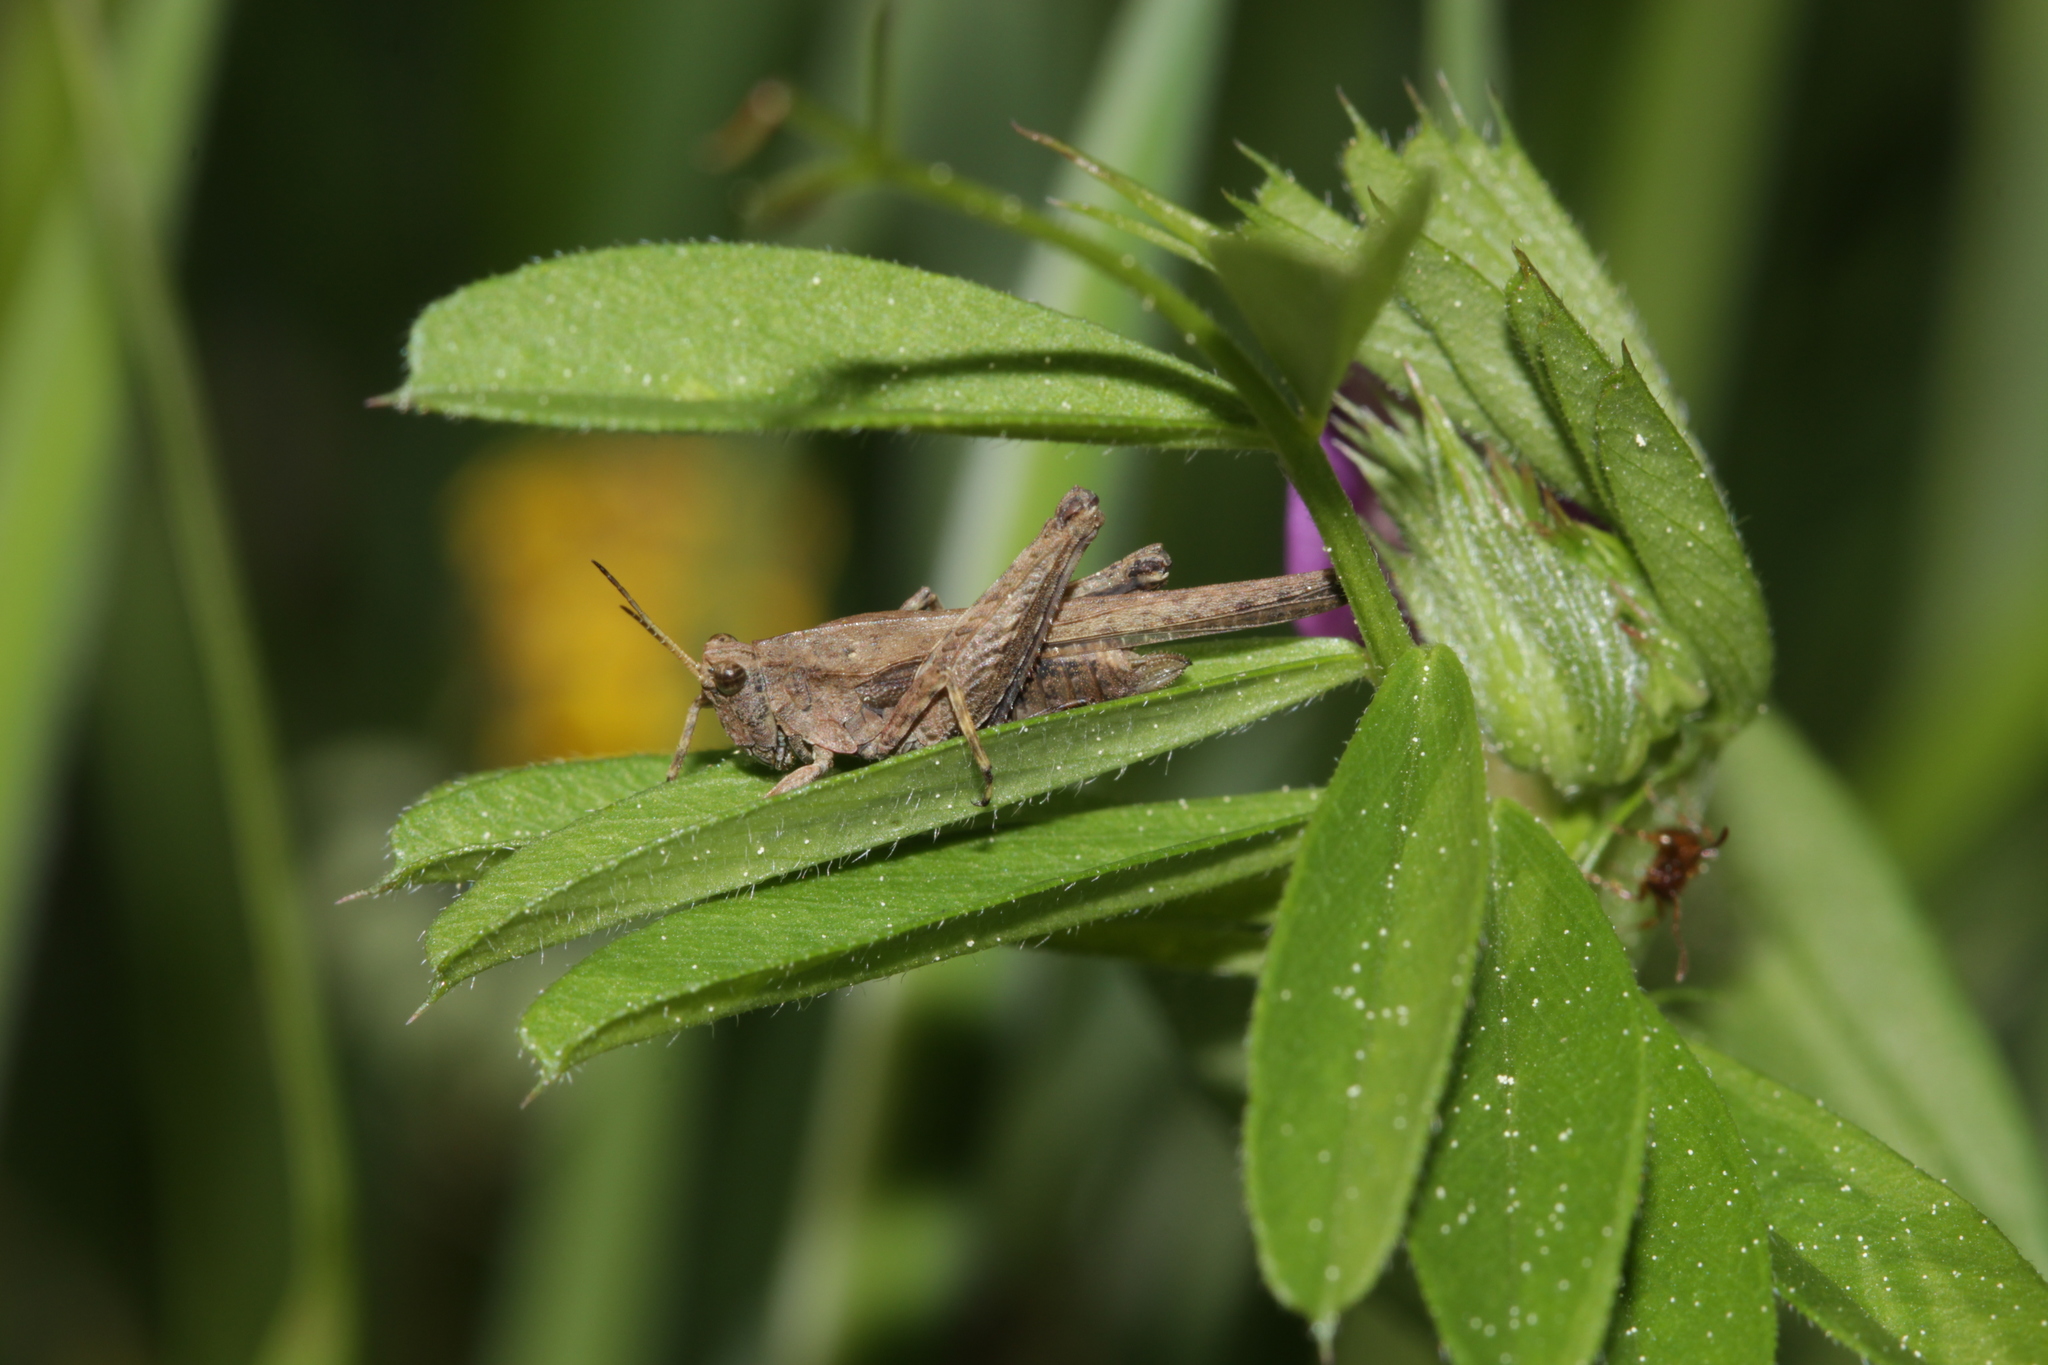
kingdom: Animalia
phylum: Arthropoda
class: Insecta
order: Orthoptera
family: Tetrigidae
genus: Tetrix
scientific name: Tetrix subulata
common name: Slender ground-hopper
